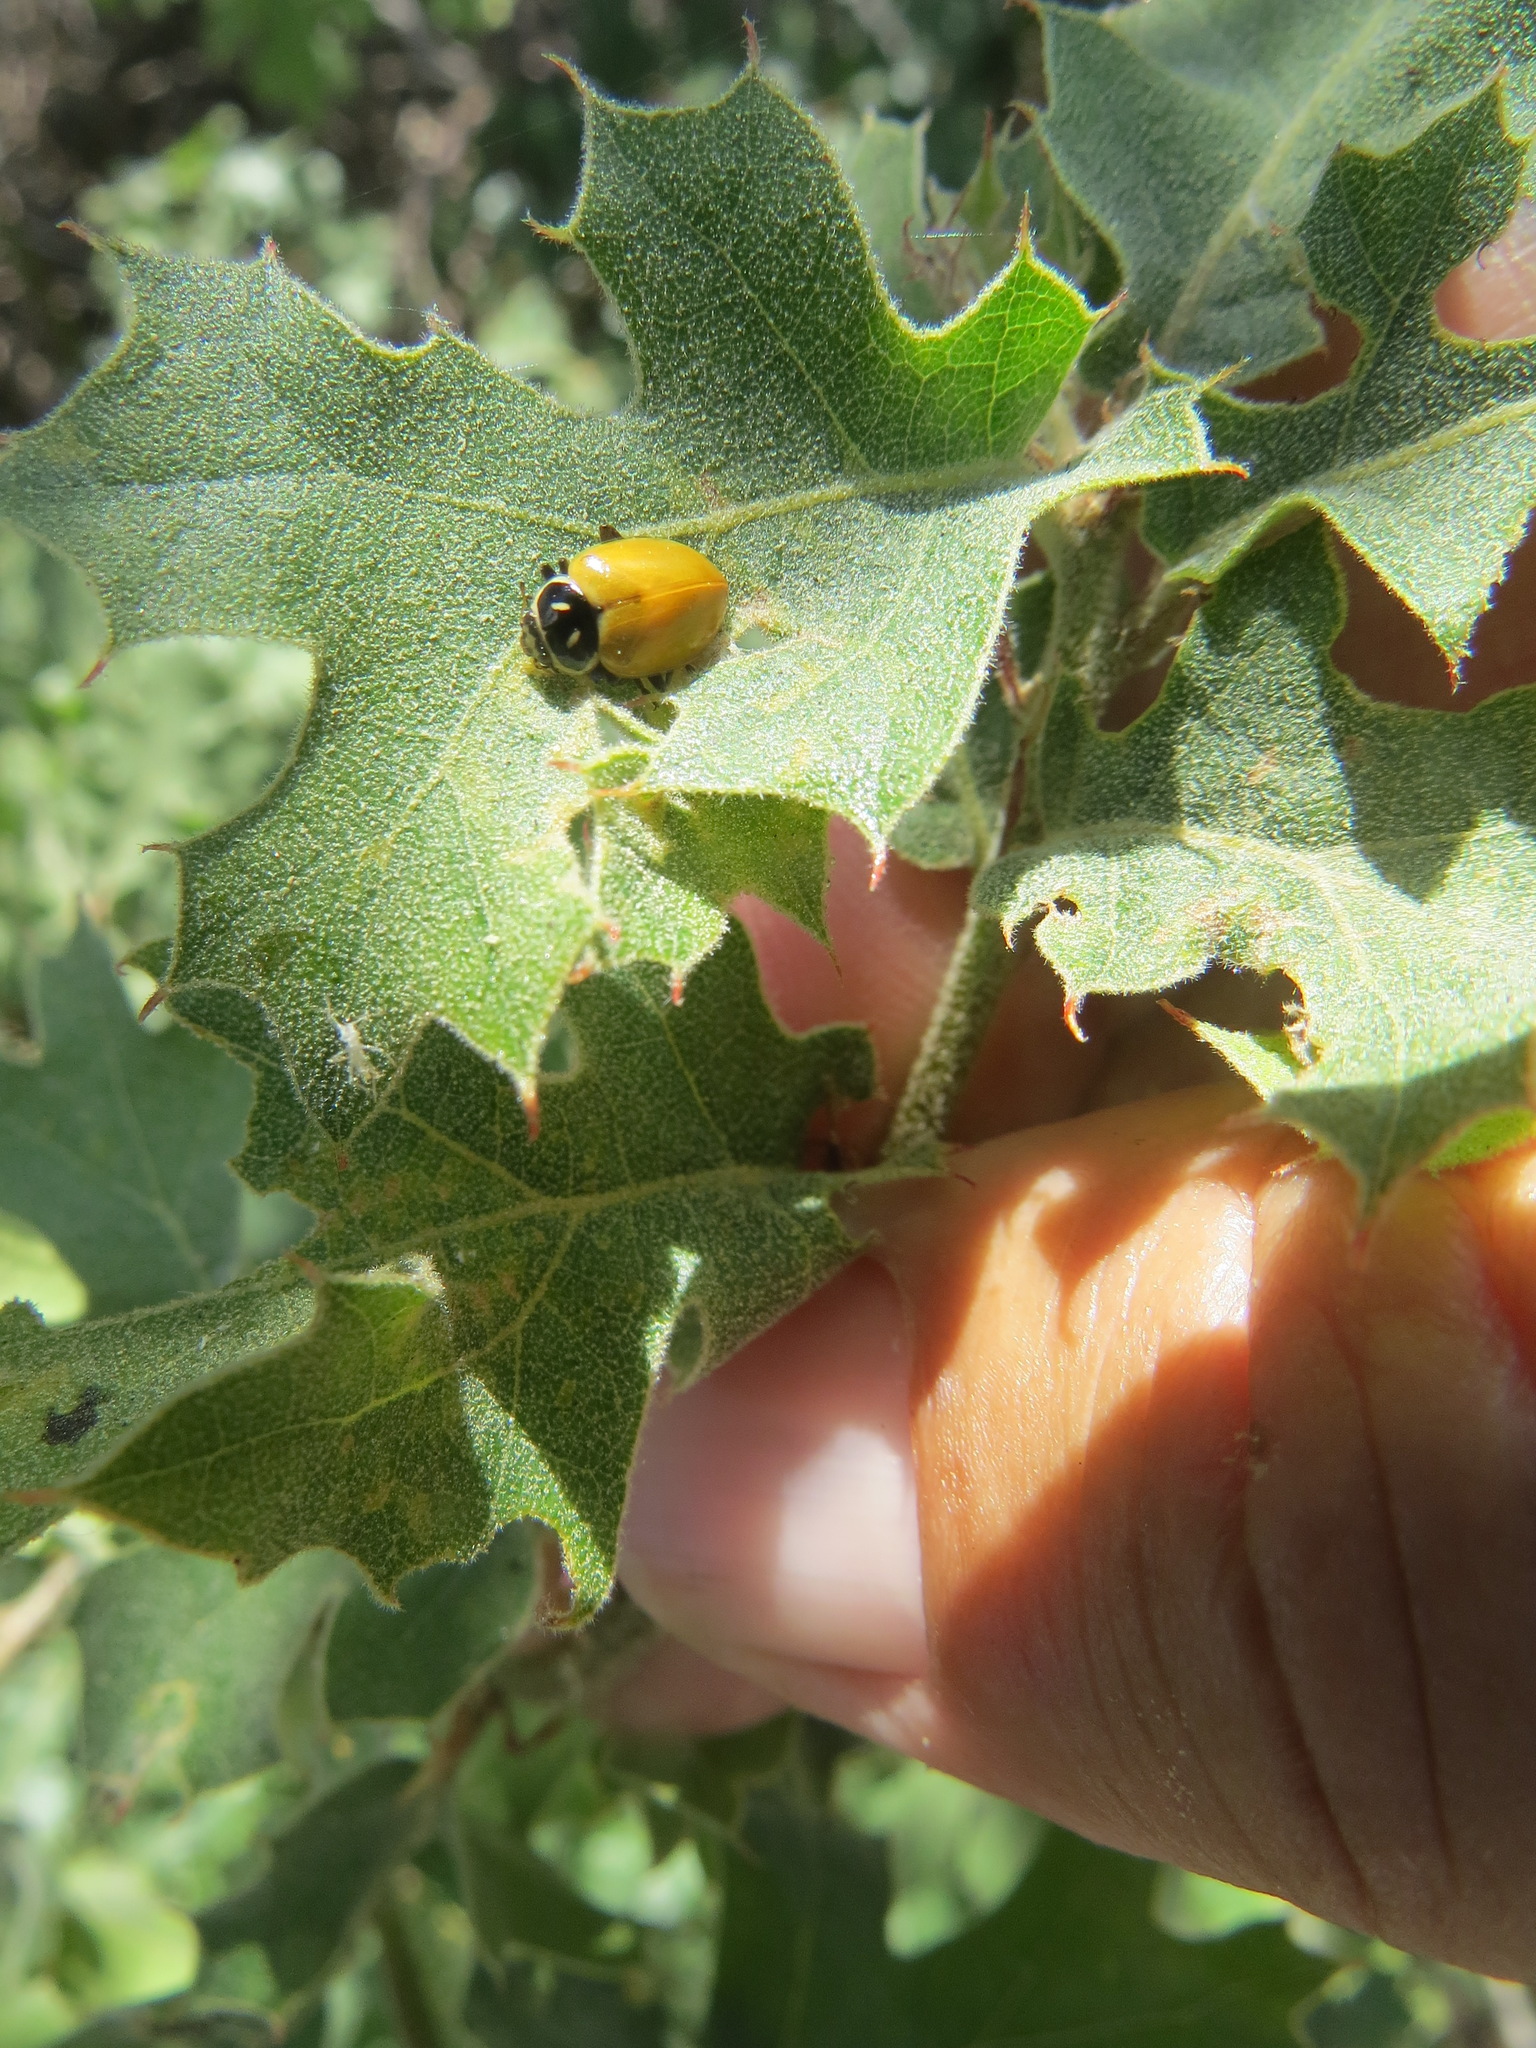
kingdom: Animalia
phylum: Arthropoda
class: Insecta
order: Coleoptera
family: Coccinellidae
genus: Hippodamia
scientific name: Hippodamia convergens
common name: Convergent lady beetle
